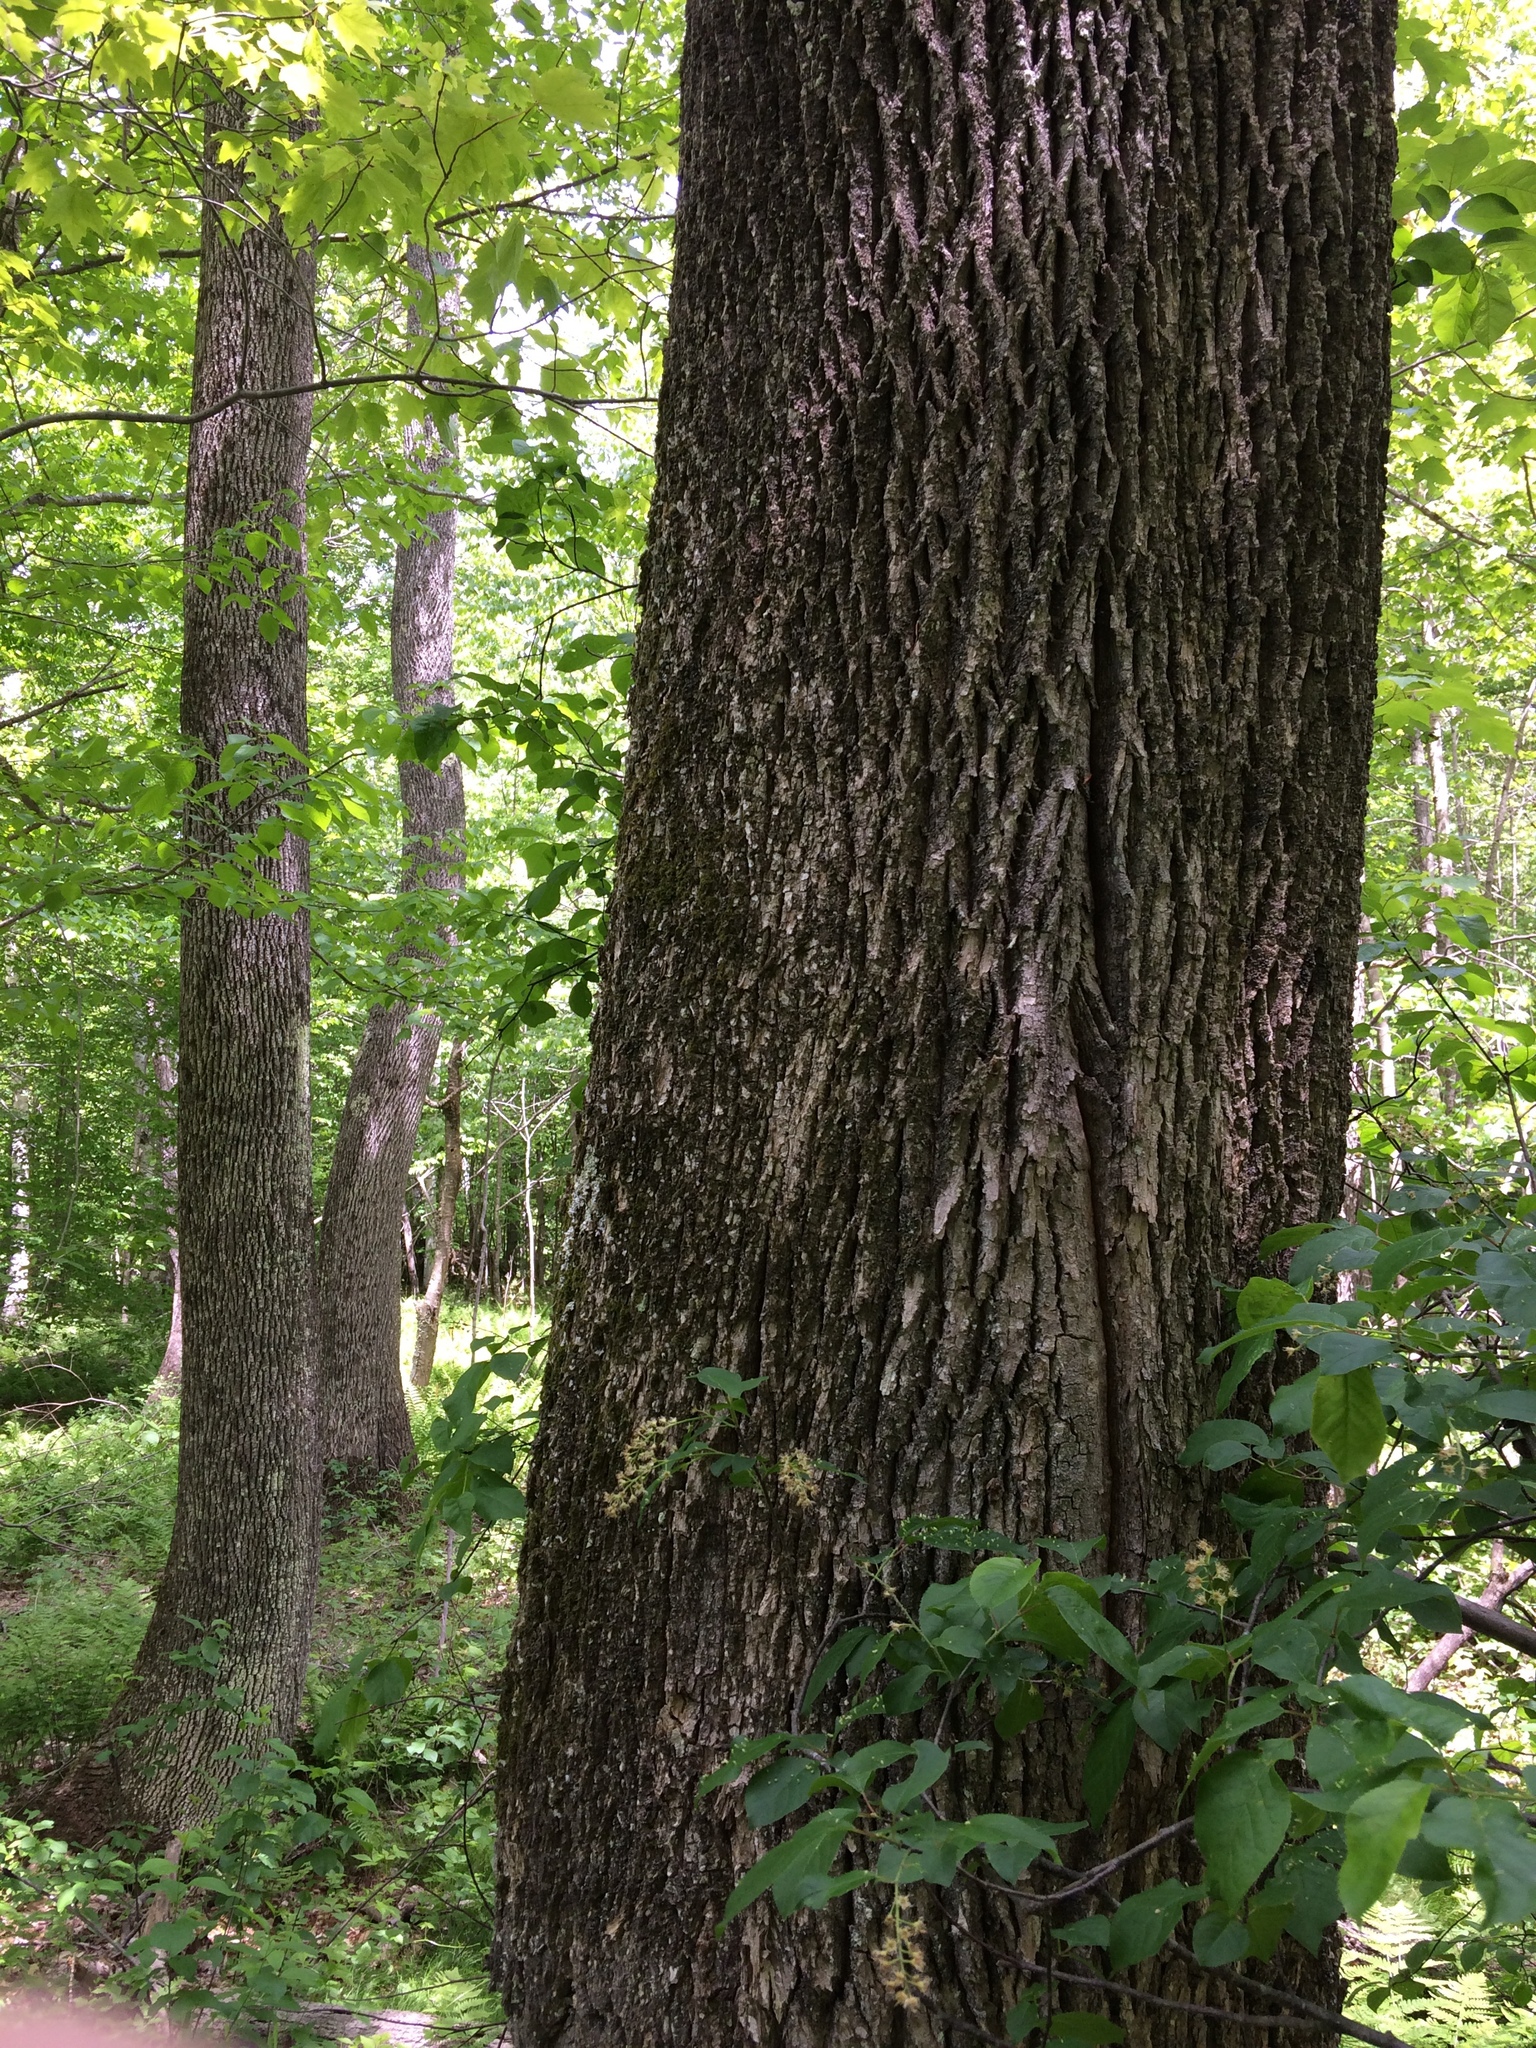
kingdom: Plantae
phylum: Tracheophyta
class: Magnoliopsida
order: Lamiales
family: Oleaceae
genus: Fraxinus
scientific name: Fraxinus americana
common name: White ash
